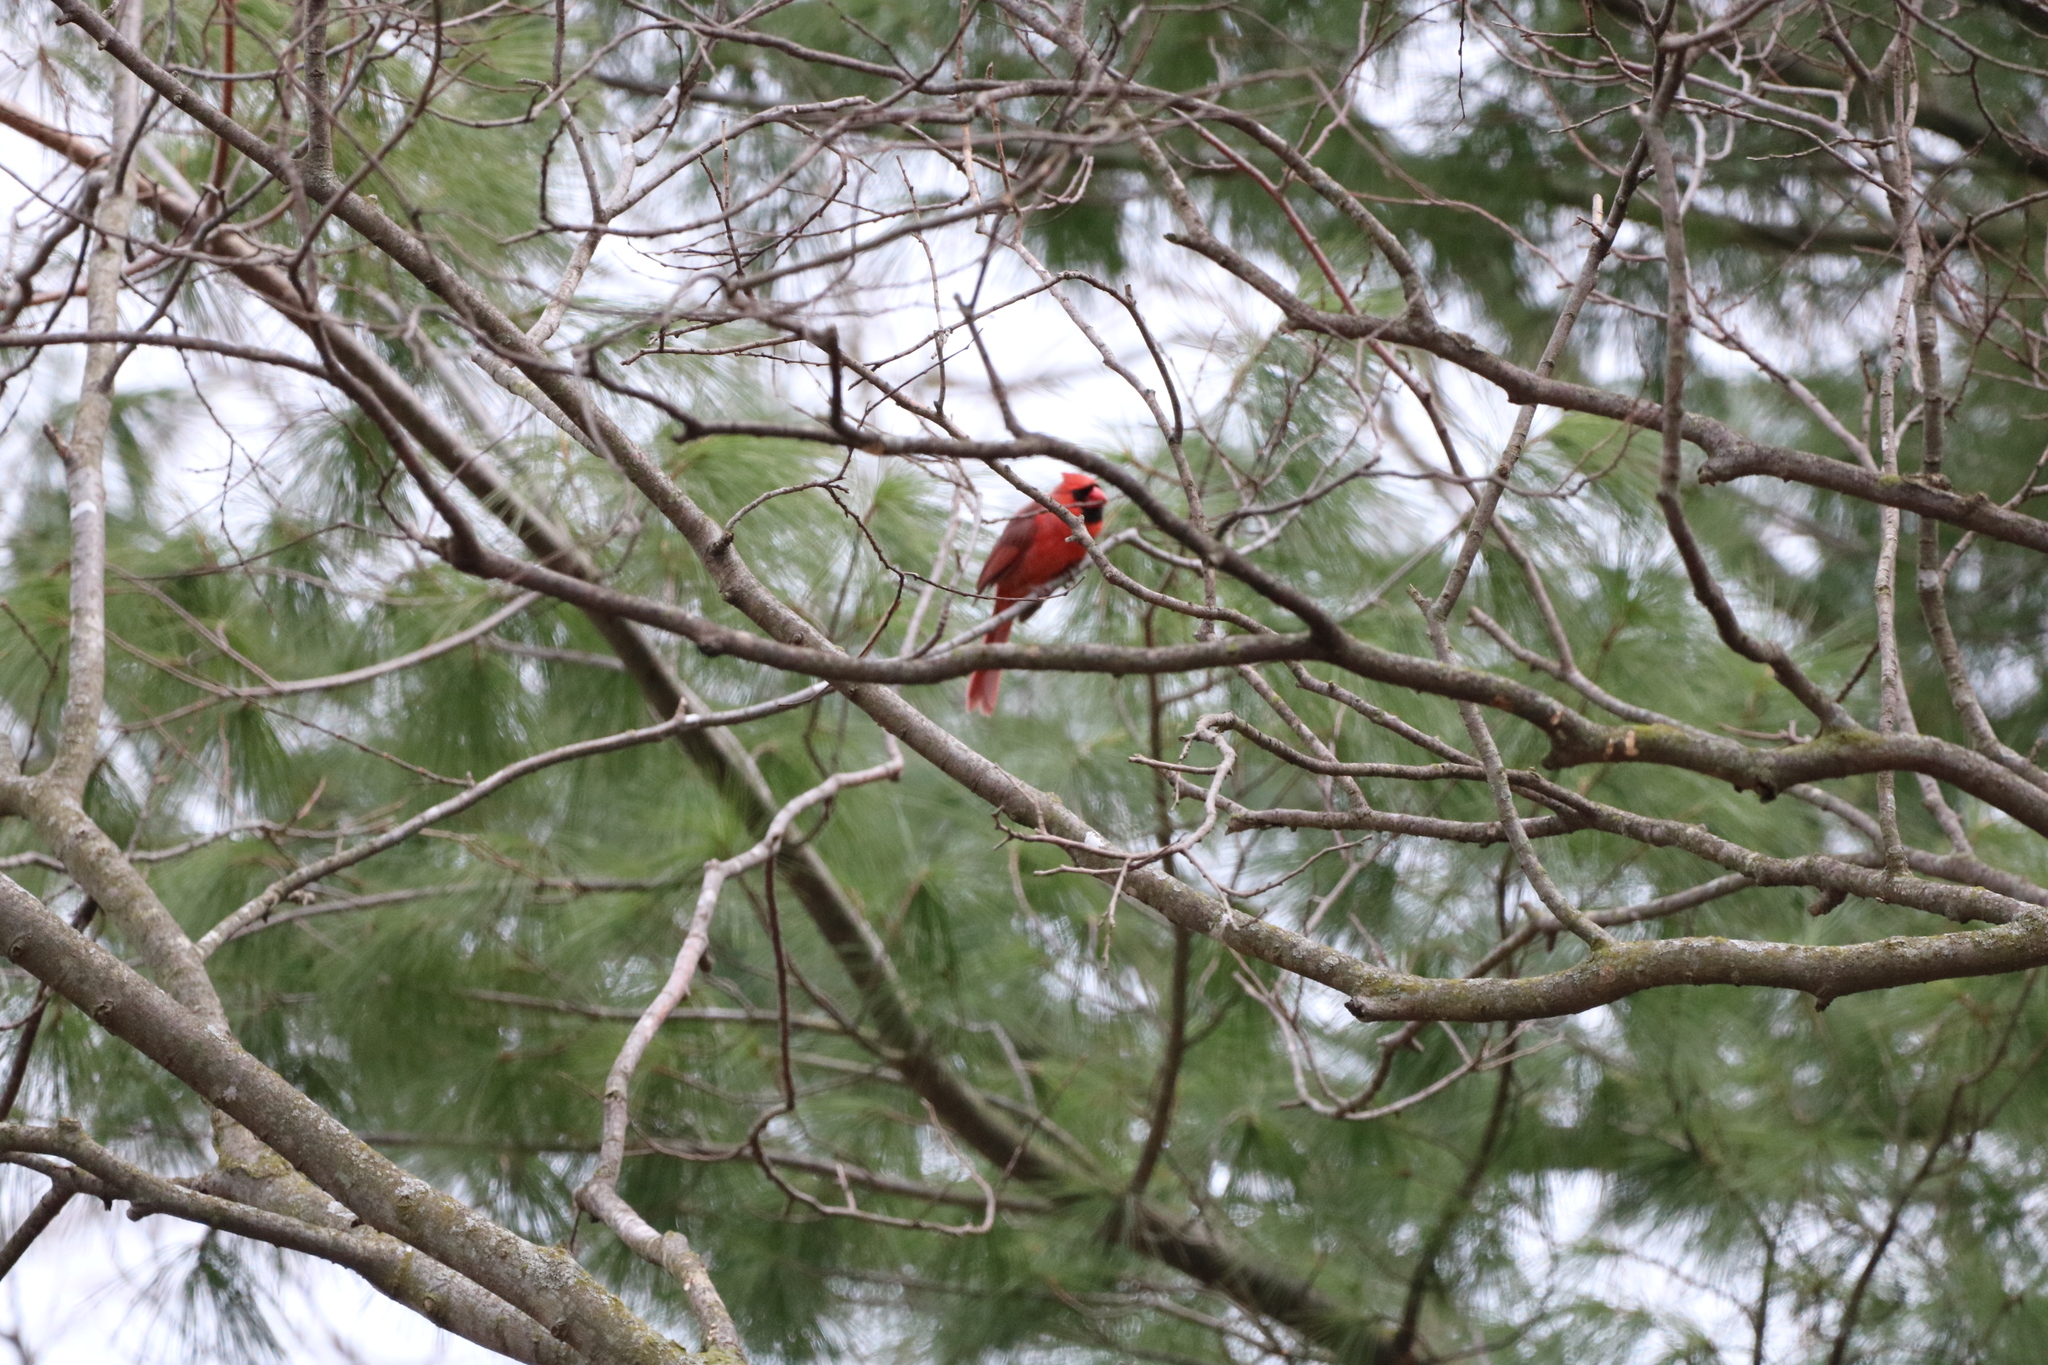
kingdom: Animalia
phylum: Chordata
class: Aves
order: Passeriformes
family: Cardinalidae
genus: Cardinalis
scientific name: Cardinalis cardinalis
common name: Northern cardinal
